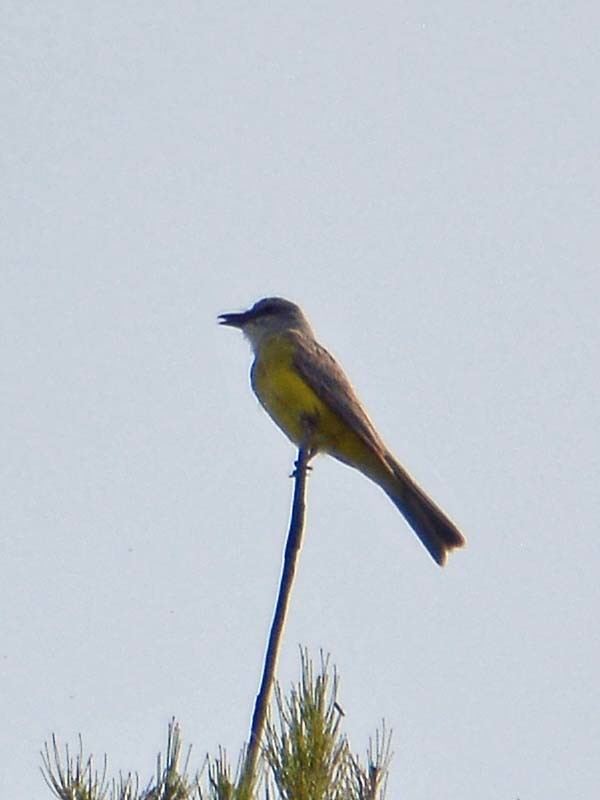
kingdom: Animalia
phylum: Chordata
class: Aves
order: Passeriformes
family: Tyrannidae
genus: Tyrannus
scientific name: Tyrannus melancholicus
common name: Tropical kingbird
